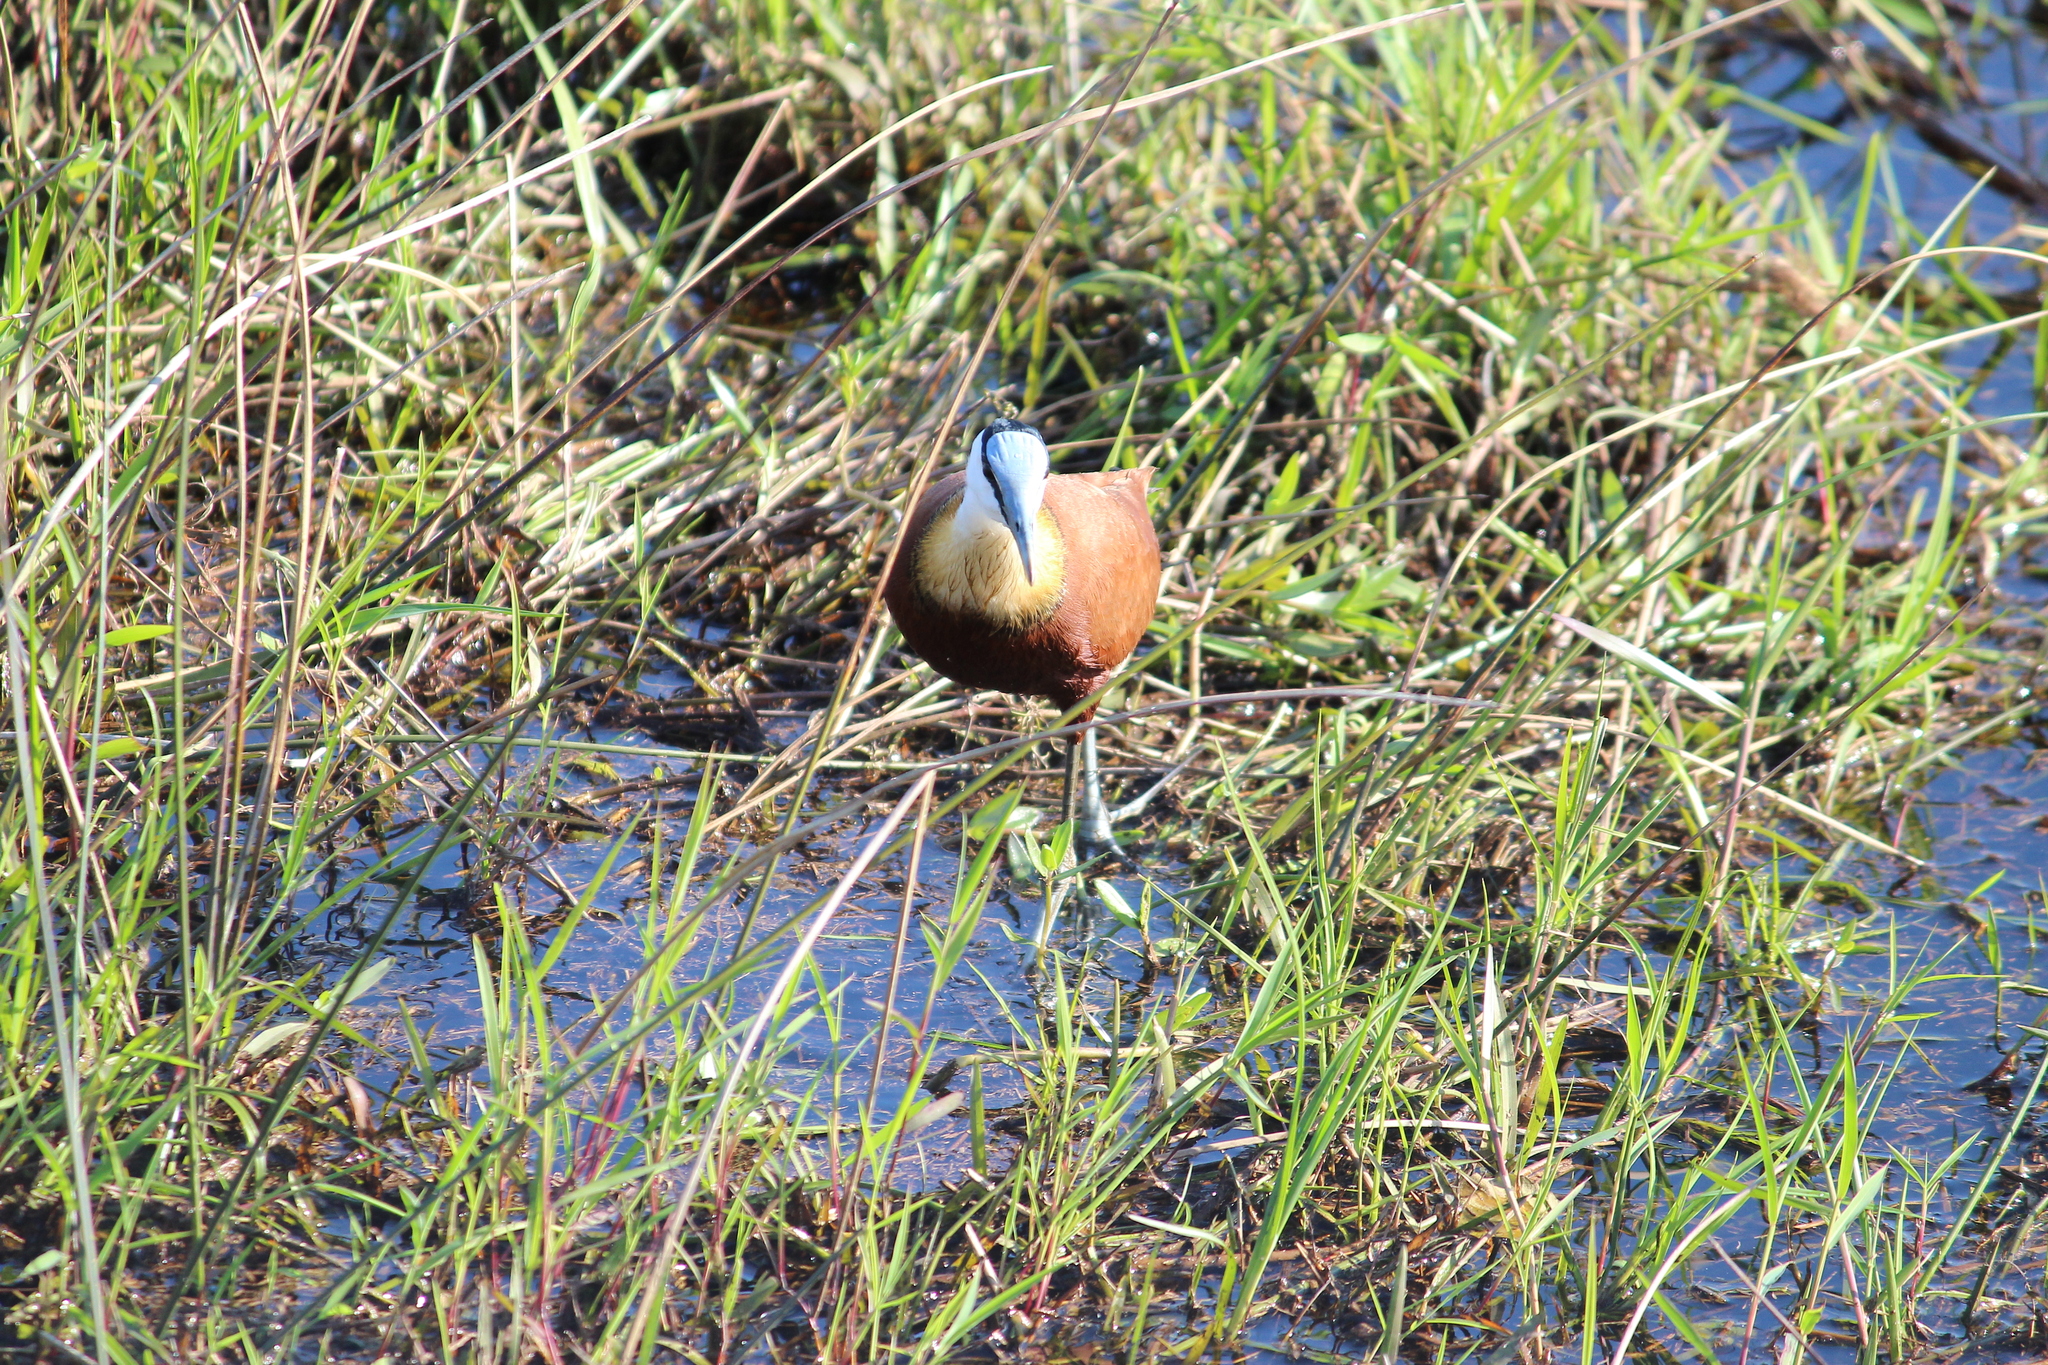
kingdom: Animalia
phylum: Chordata
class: Aves
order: Charadriiformes
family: Jacanidae
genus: Actophilornis
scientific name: Actophilornis africanus
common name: African jacana
